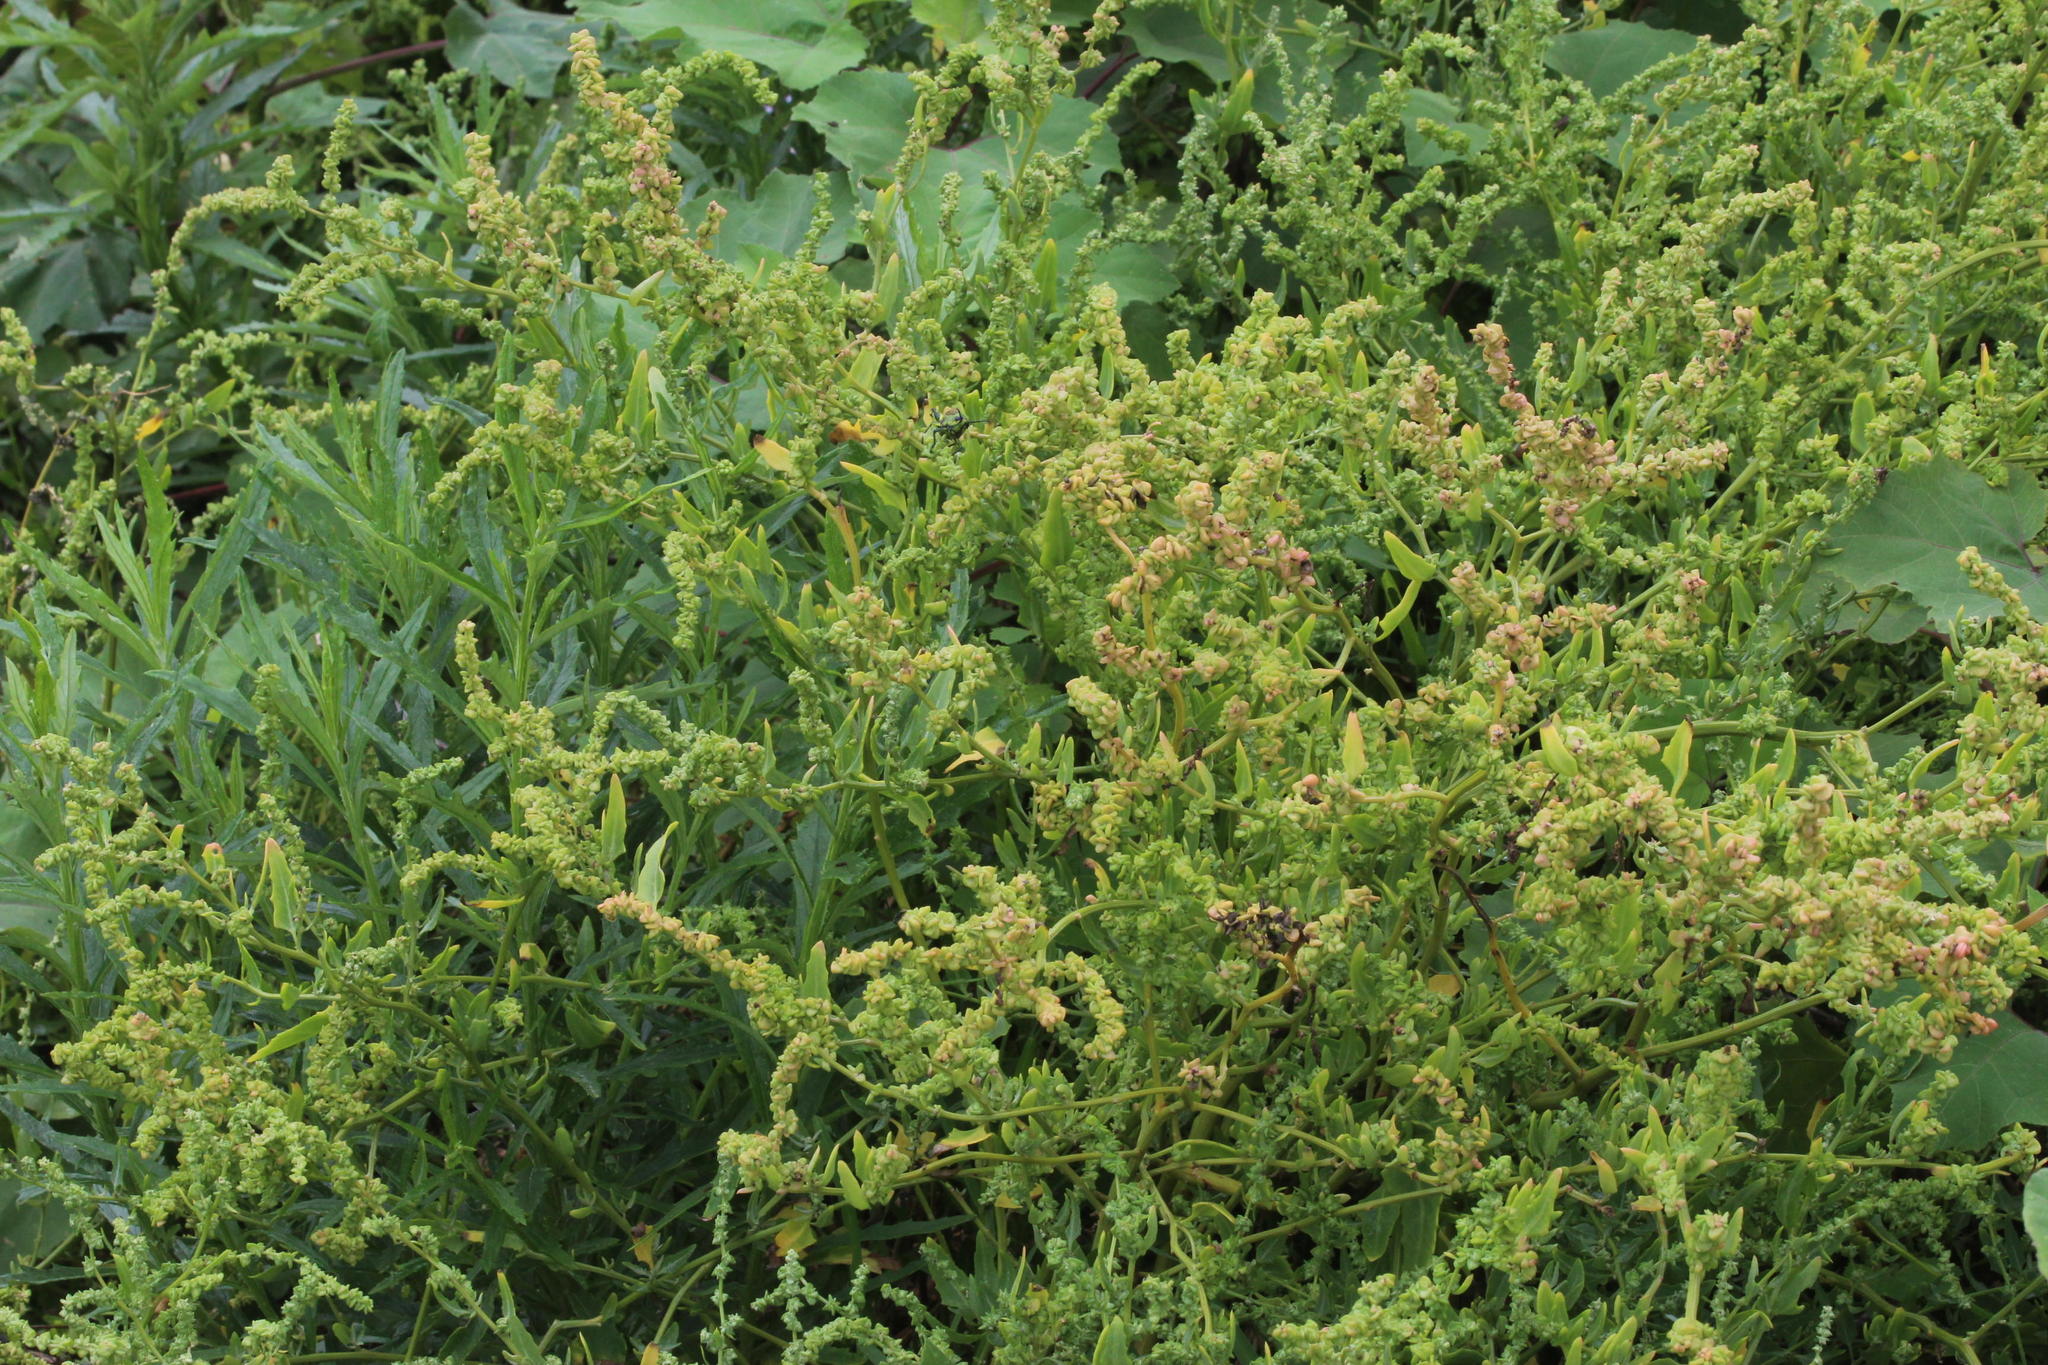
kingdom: Plantae
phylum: Tracheophyta
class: Magnoliopsida
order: Caryophyllales
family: Amaranthaceae
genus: Dysphania
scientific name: Dysphania ambrosioides
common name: Wormseed
